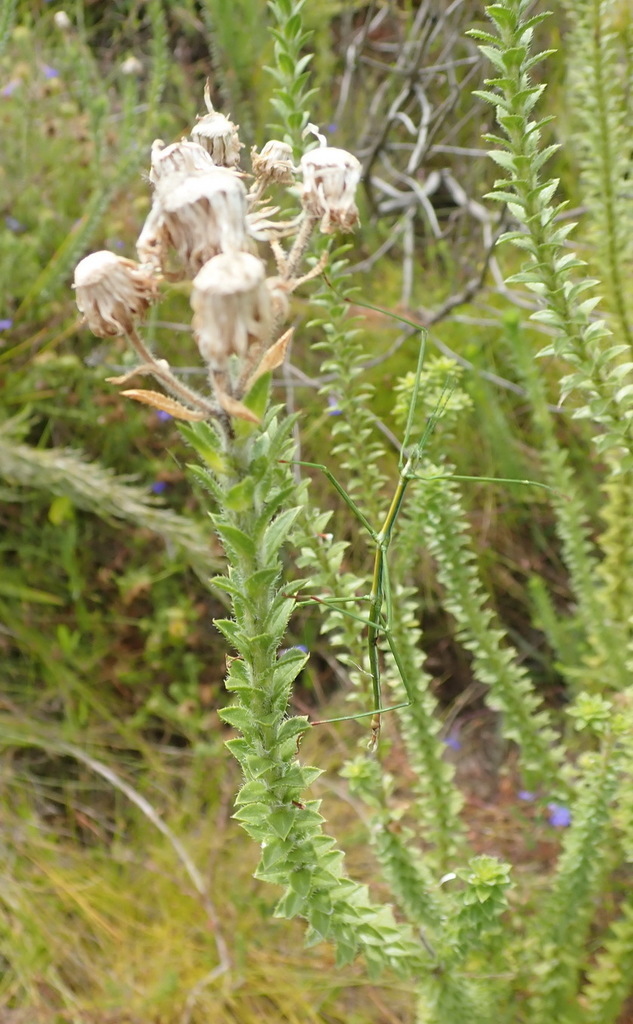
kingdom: Plantae
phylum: Tracheophyta
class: Magnoliopsida
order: Asterales
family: Asteraceae
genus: Felicia
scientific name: Felicia echinata
